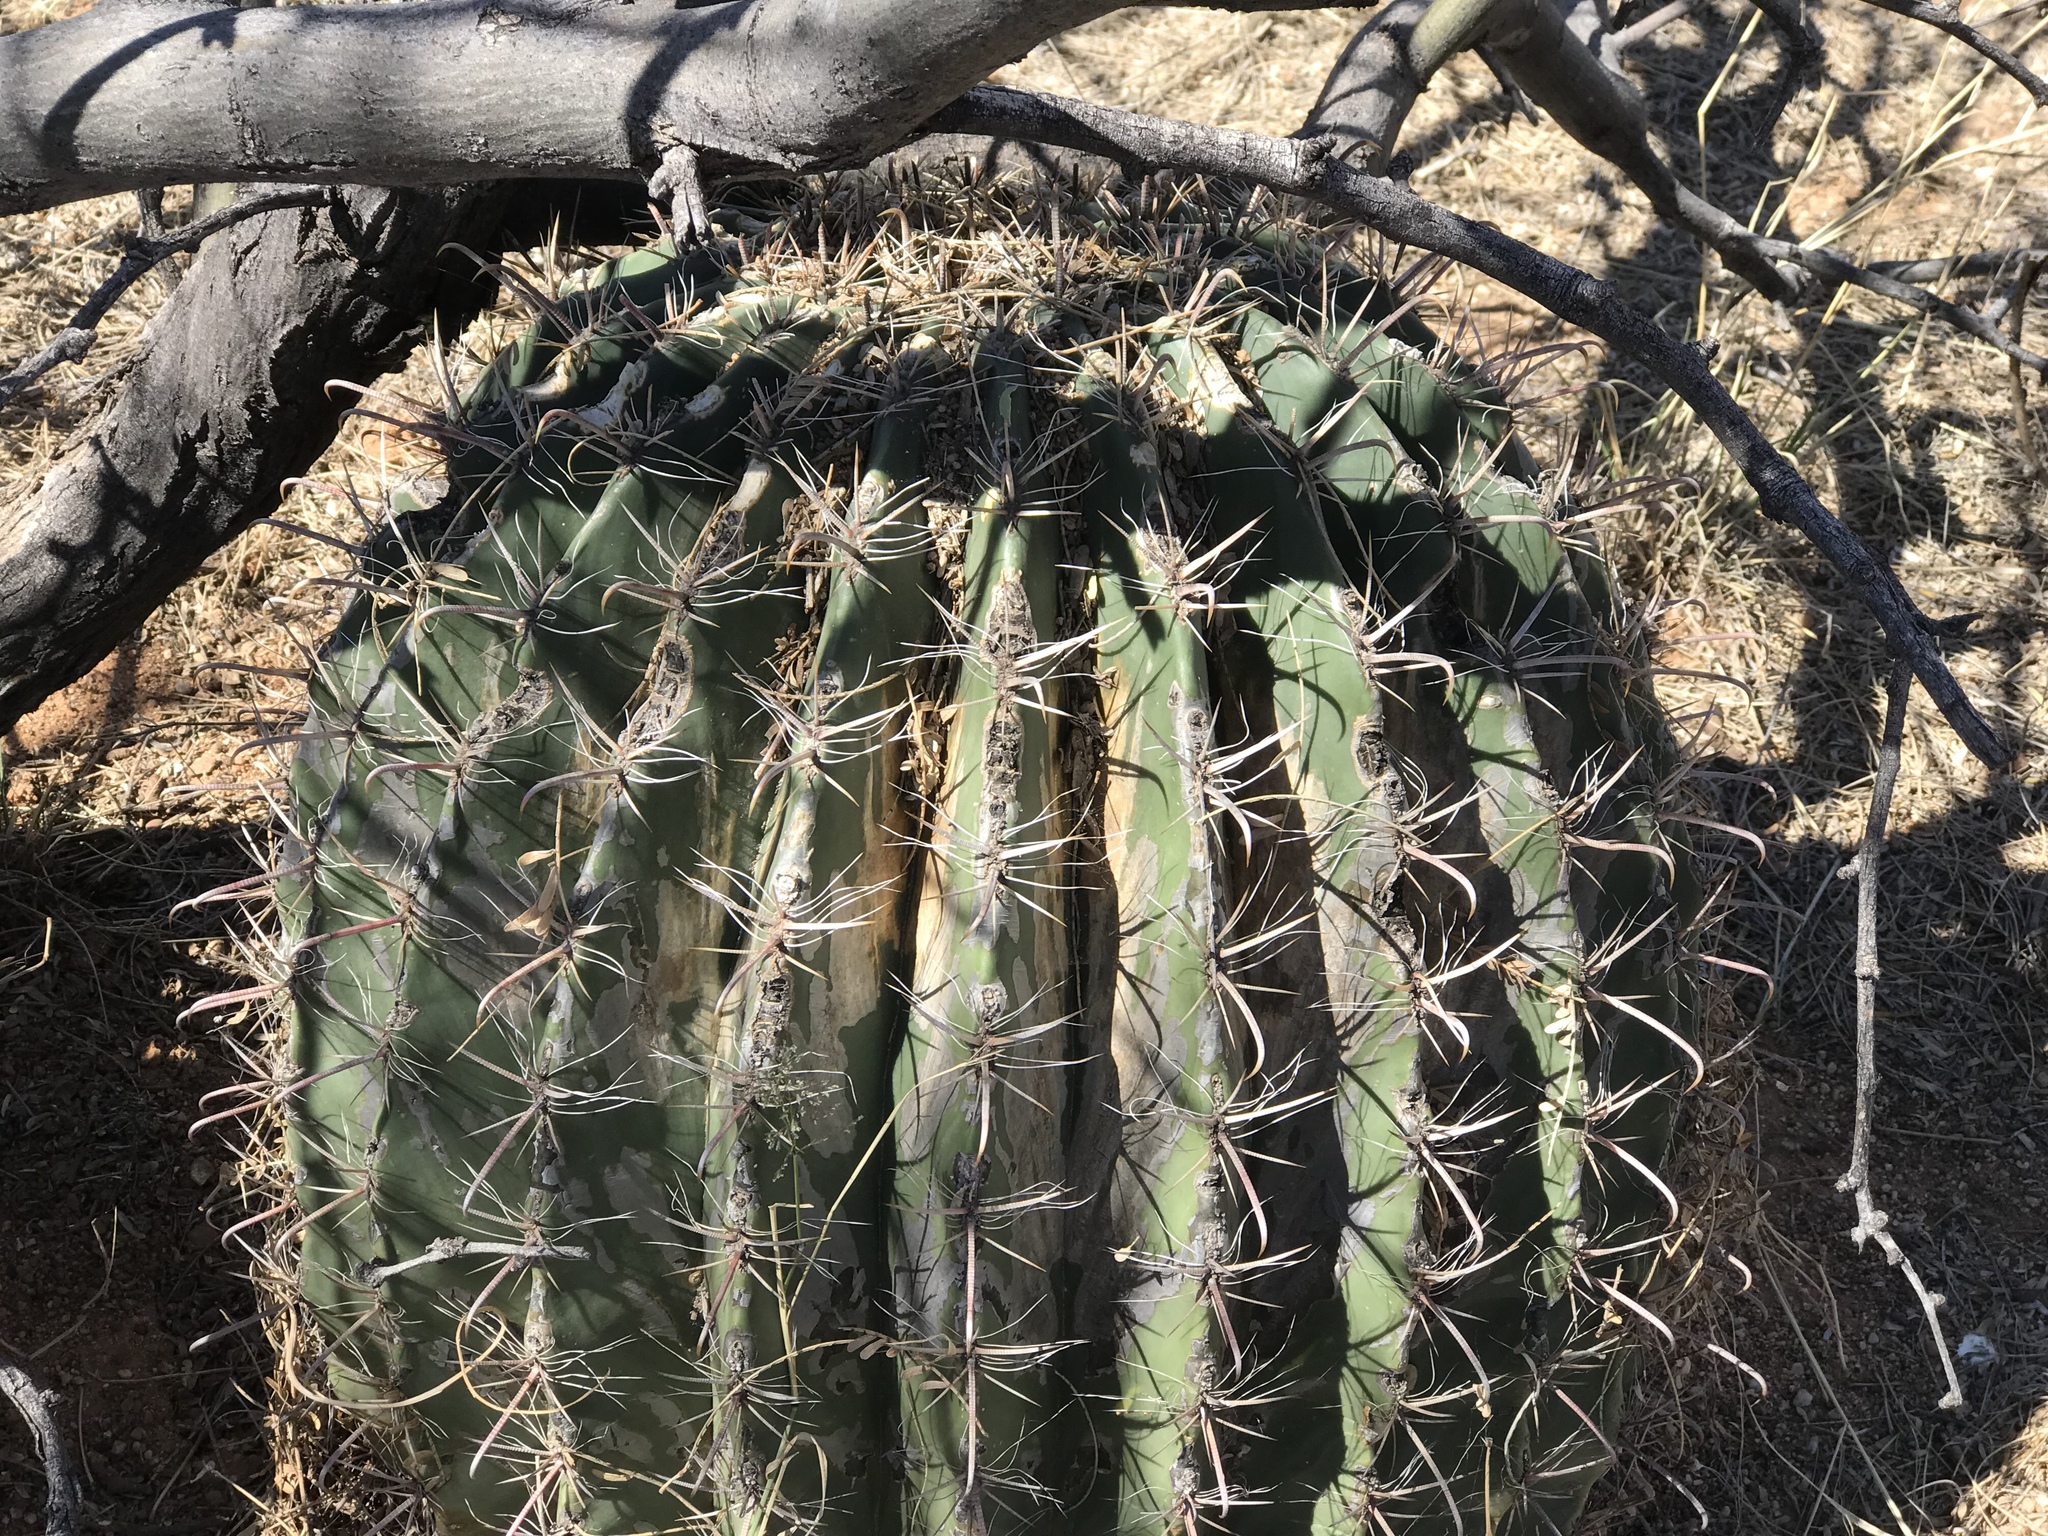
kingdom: Plantae
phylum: Tracheophyta
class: Magnoliopsida
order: Caryophyllales
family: Cactaceae
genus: Ferocactus
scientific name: Ferocactus wislizeni
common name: Candy barrel cactus
